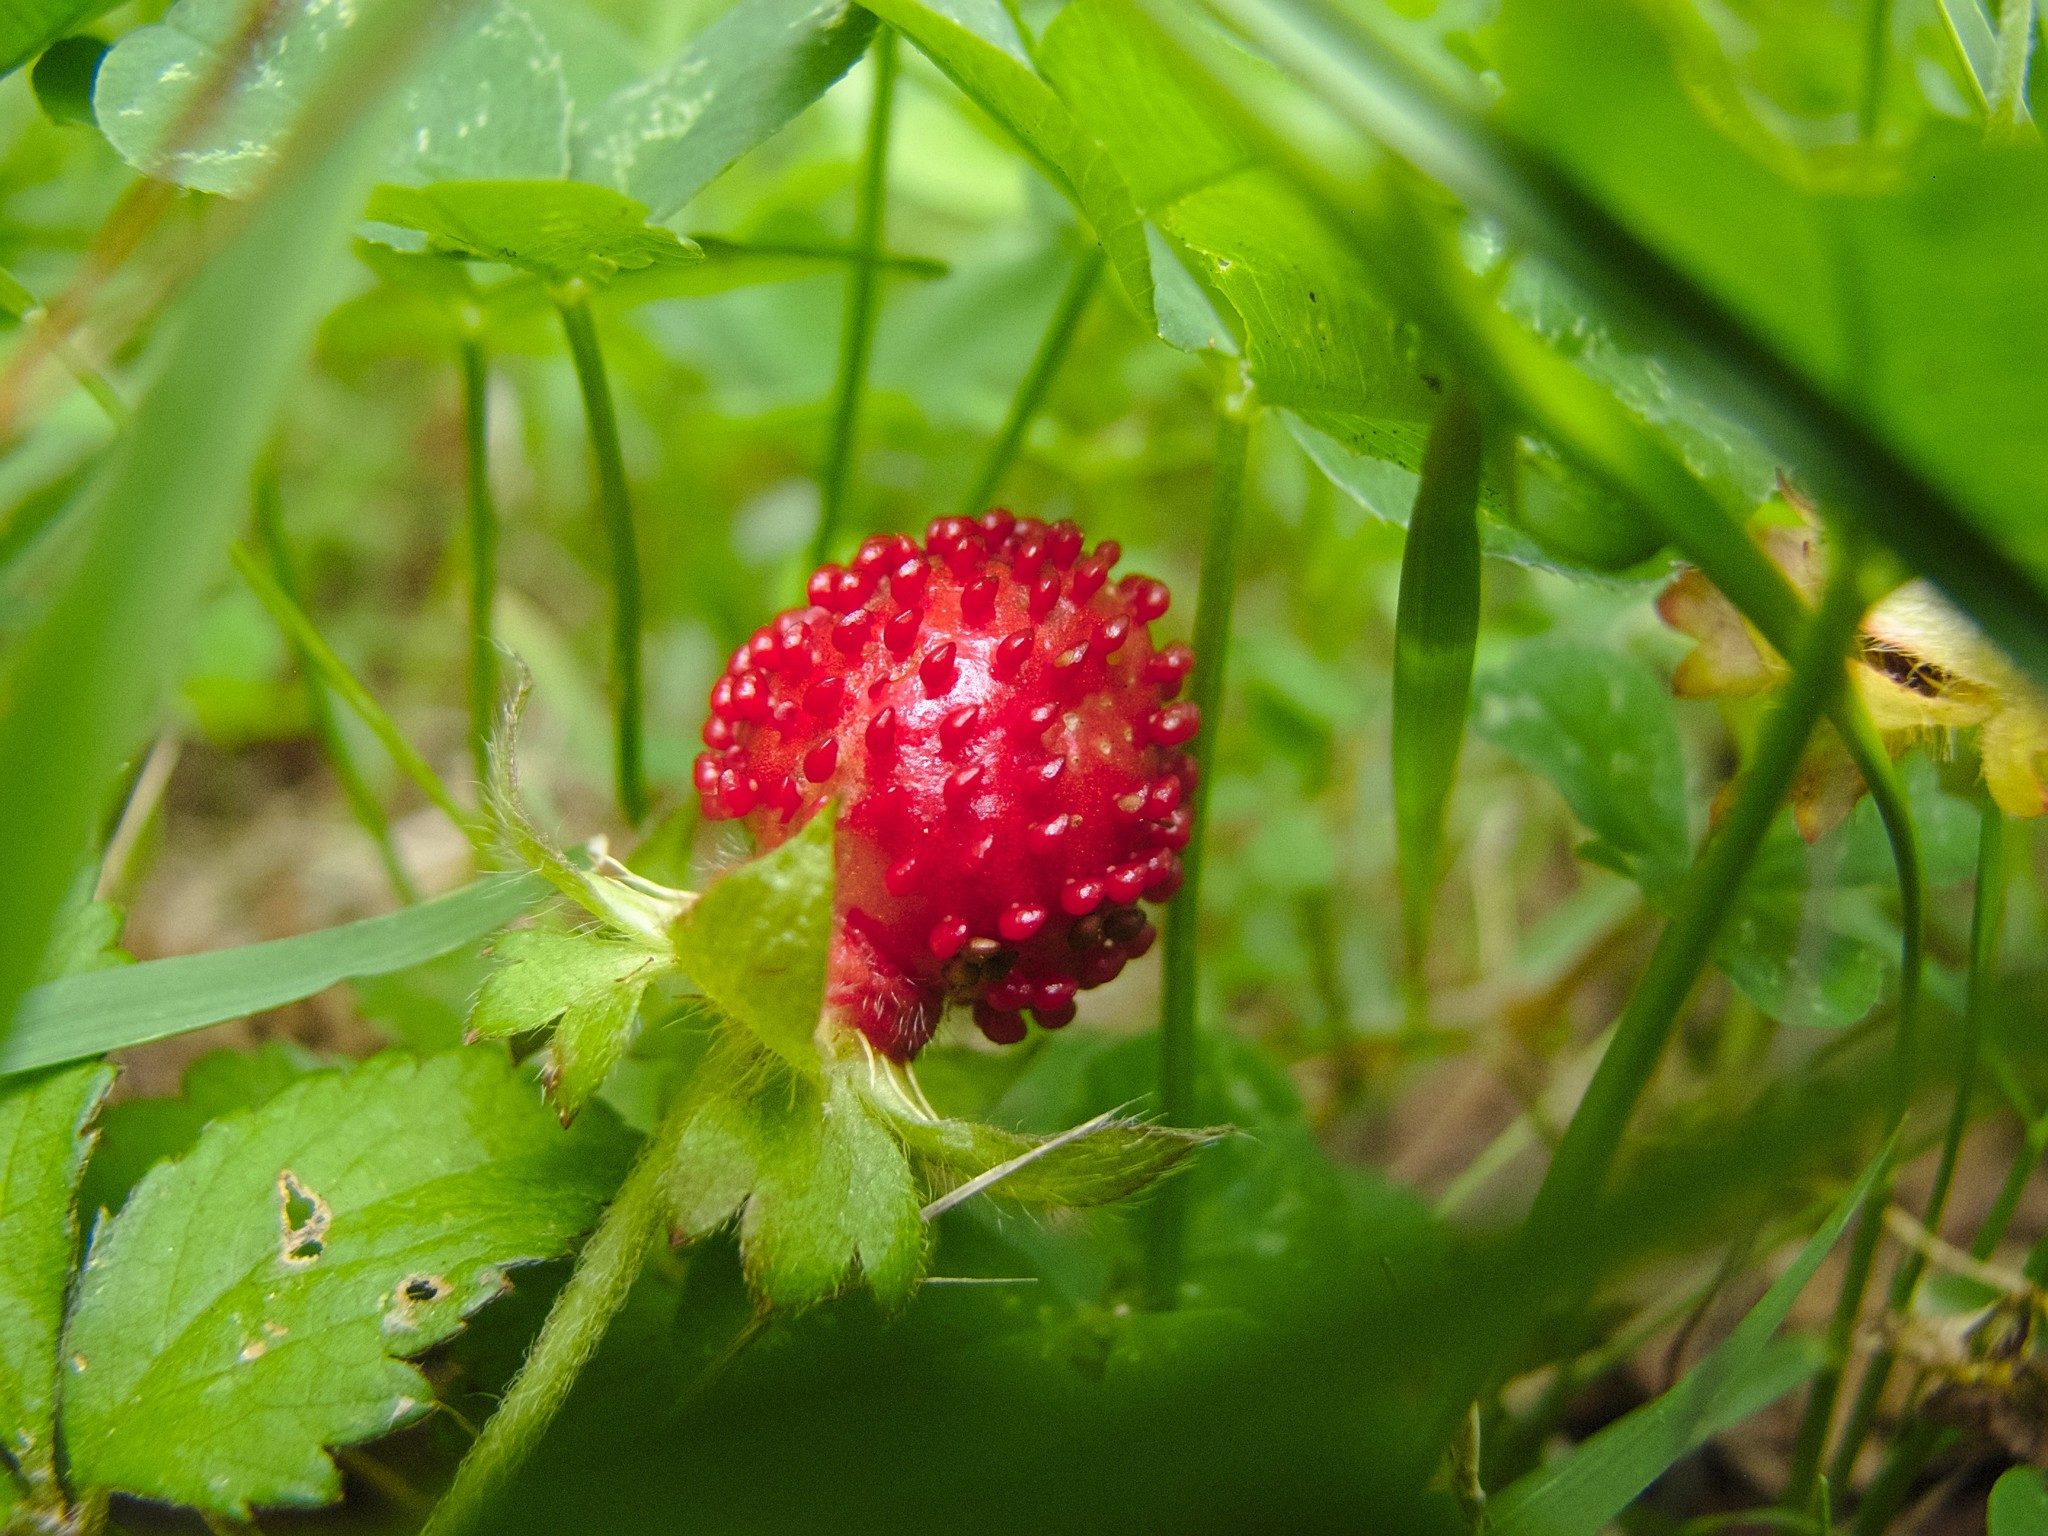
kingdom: Plantae
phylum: Tracheophyta
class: Magnoliopsida
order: Rosales
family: Rosaceae
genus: Potentilla
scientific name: Potentilla indica
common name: Yellow-flowered strawberry
